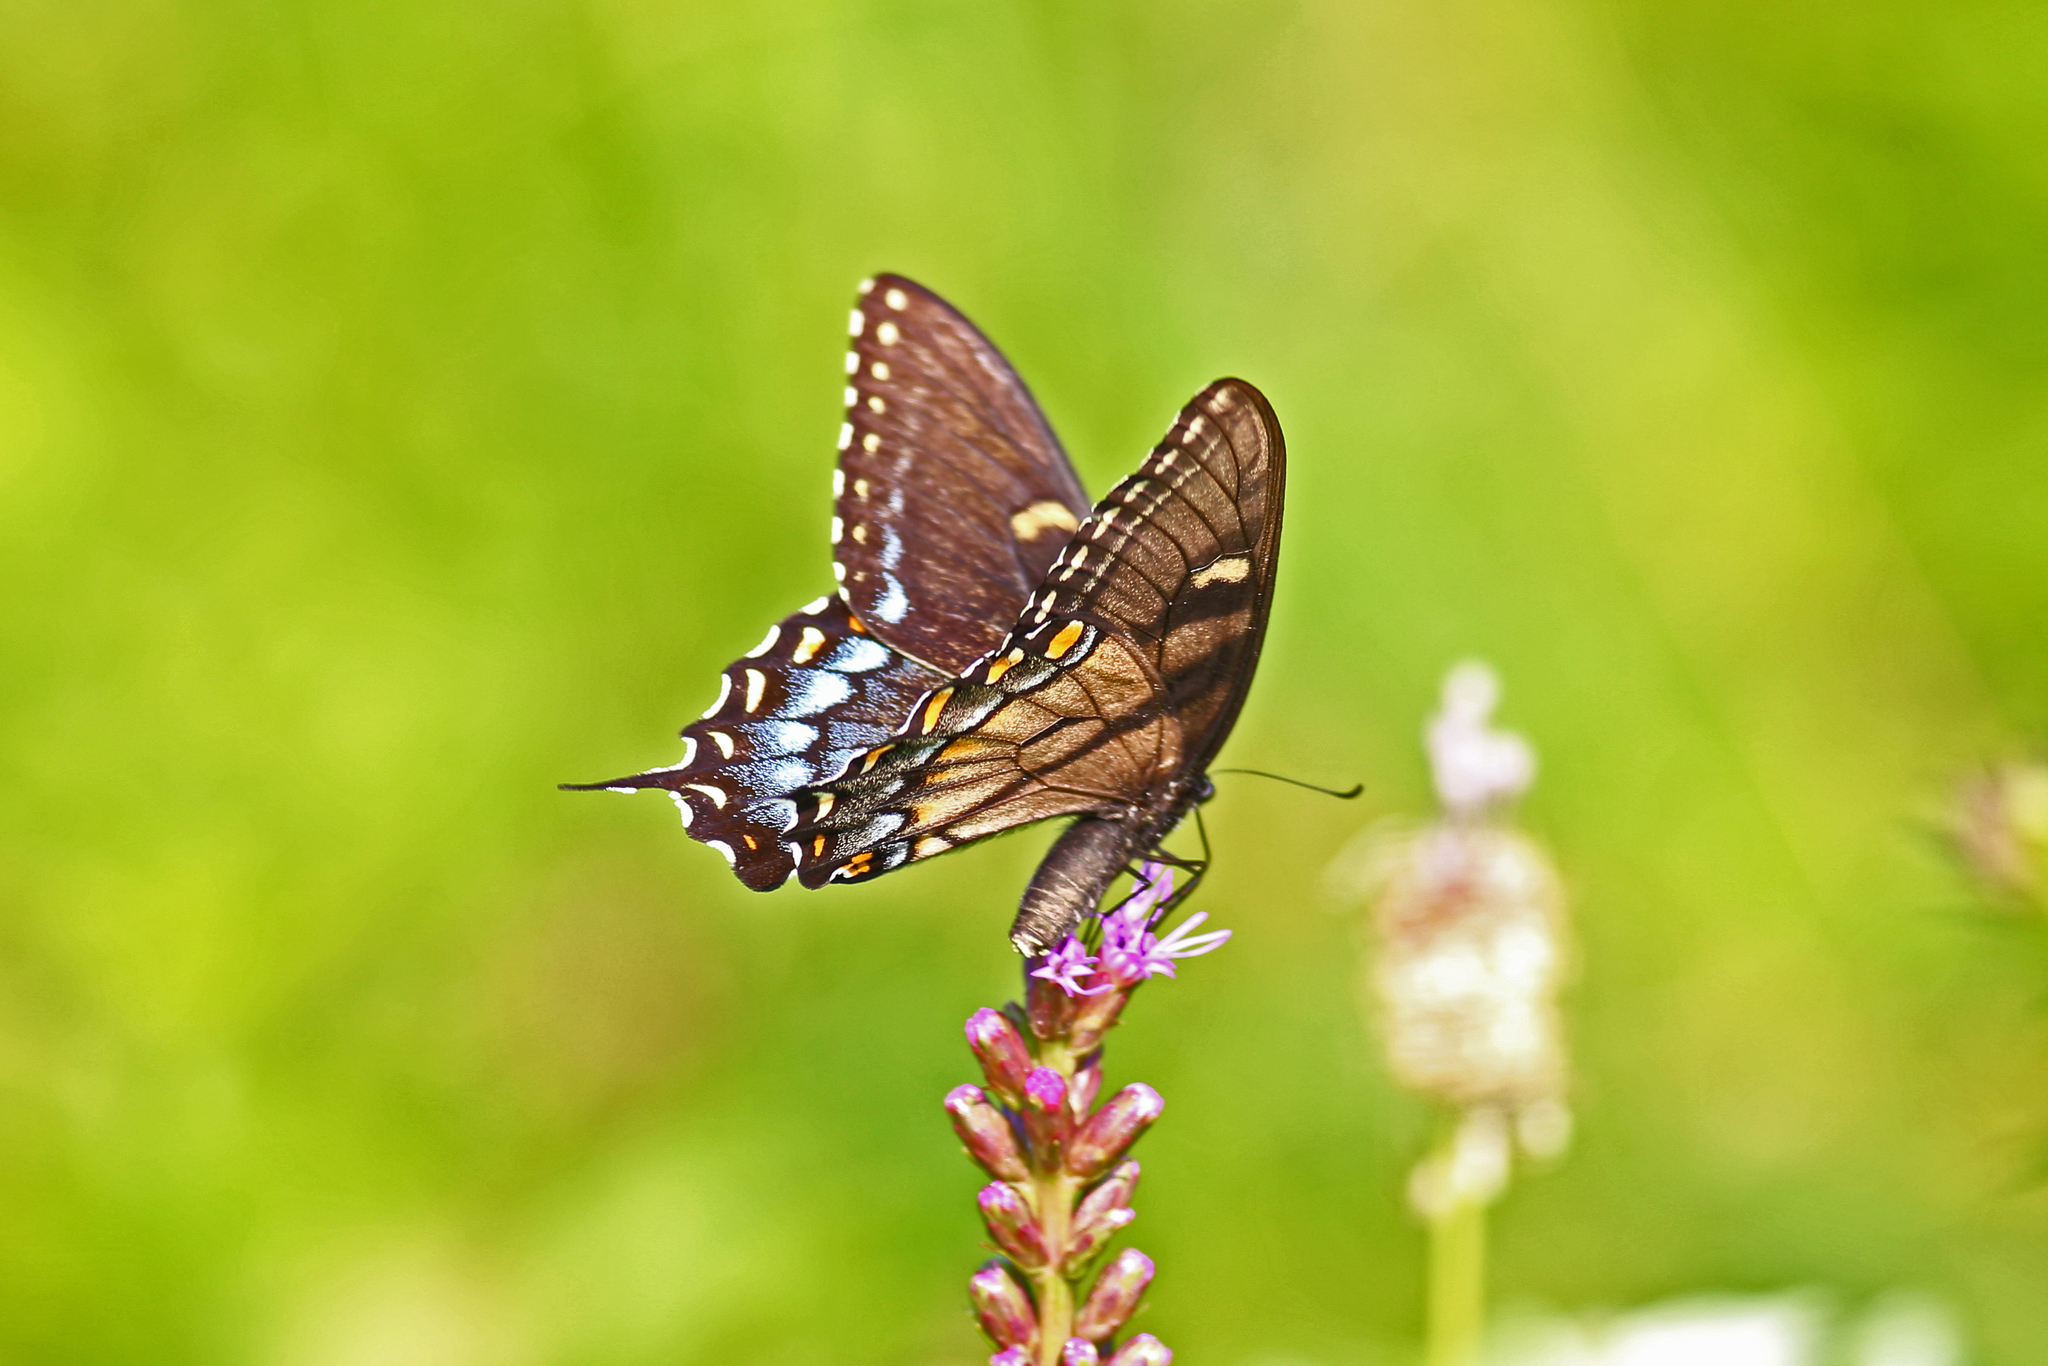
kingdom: Animalia
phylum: Arthropoda
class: Insecta
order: Lepidoptera
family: Papilionidae
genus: Papilio
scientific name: Papilio glaucus
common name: Tiger swallowtail
